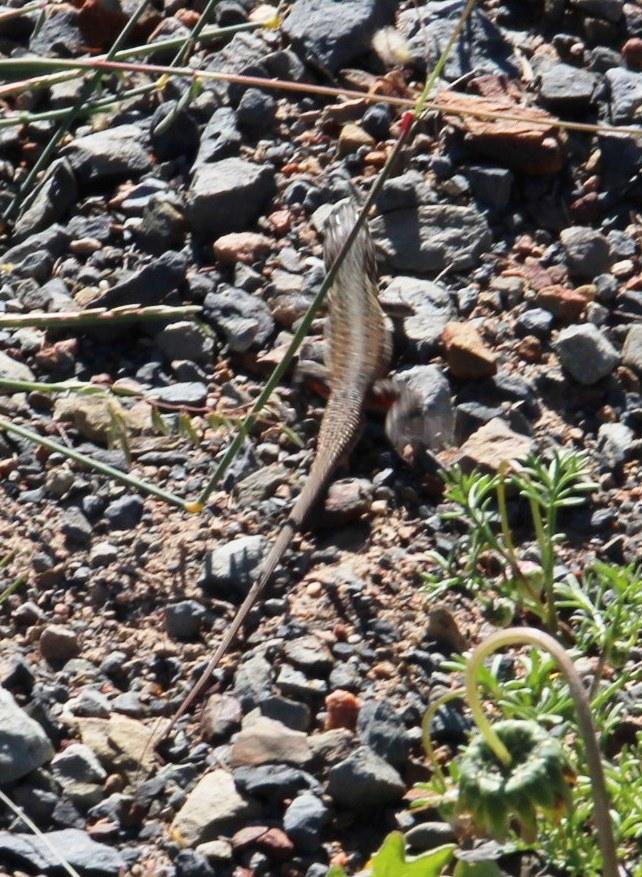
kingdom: Animalia
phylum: Chordata
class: Squamata
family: Lacertidae
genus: Pedioplanis
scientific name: Pedioplanis lineoocellata
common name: Spotted sand lizard
